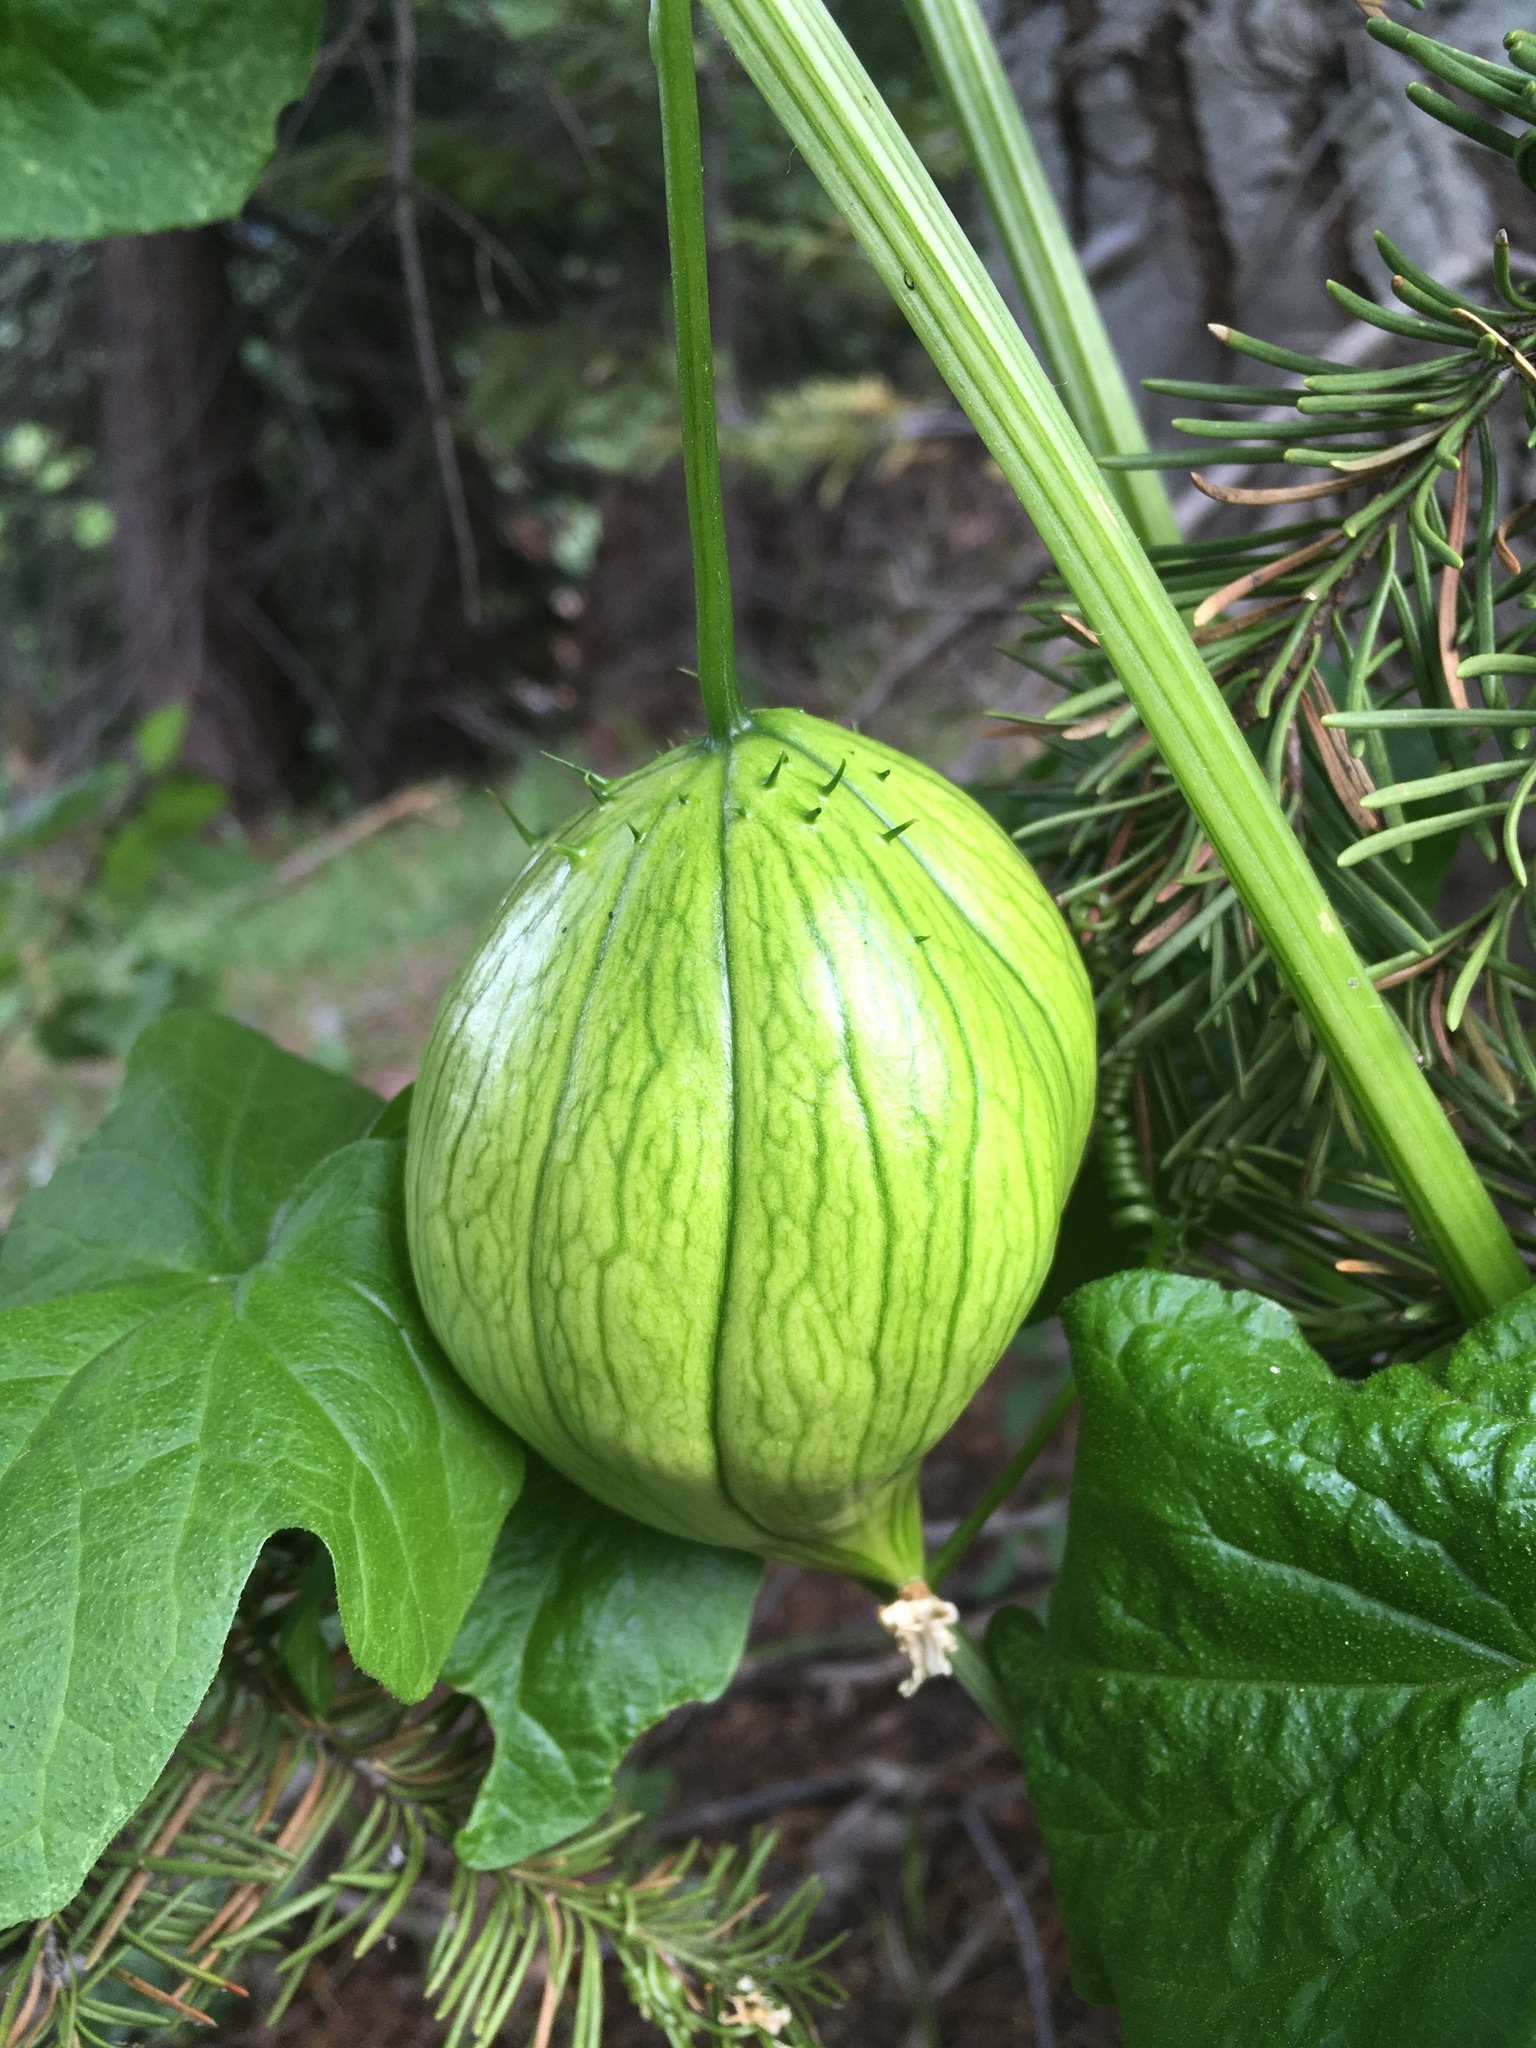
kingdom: Plantae
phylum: Tracheophyta
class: Magnoliopsida
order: Cucurbitales
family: Cucurbitaceae
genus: Marah
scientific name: Marah oregana
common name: Coastal manroot
